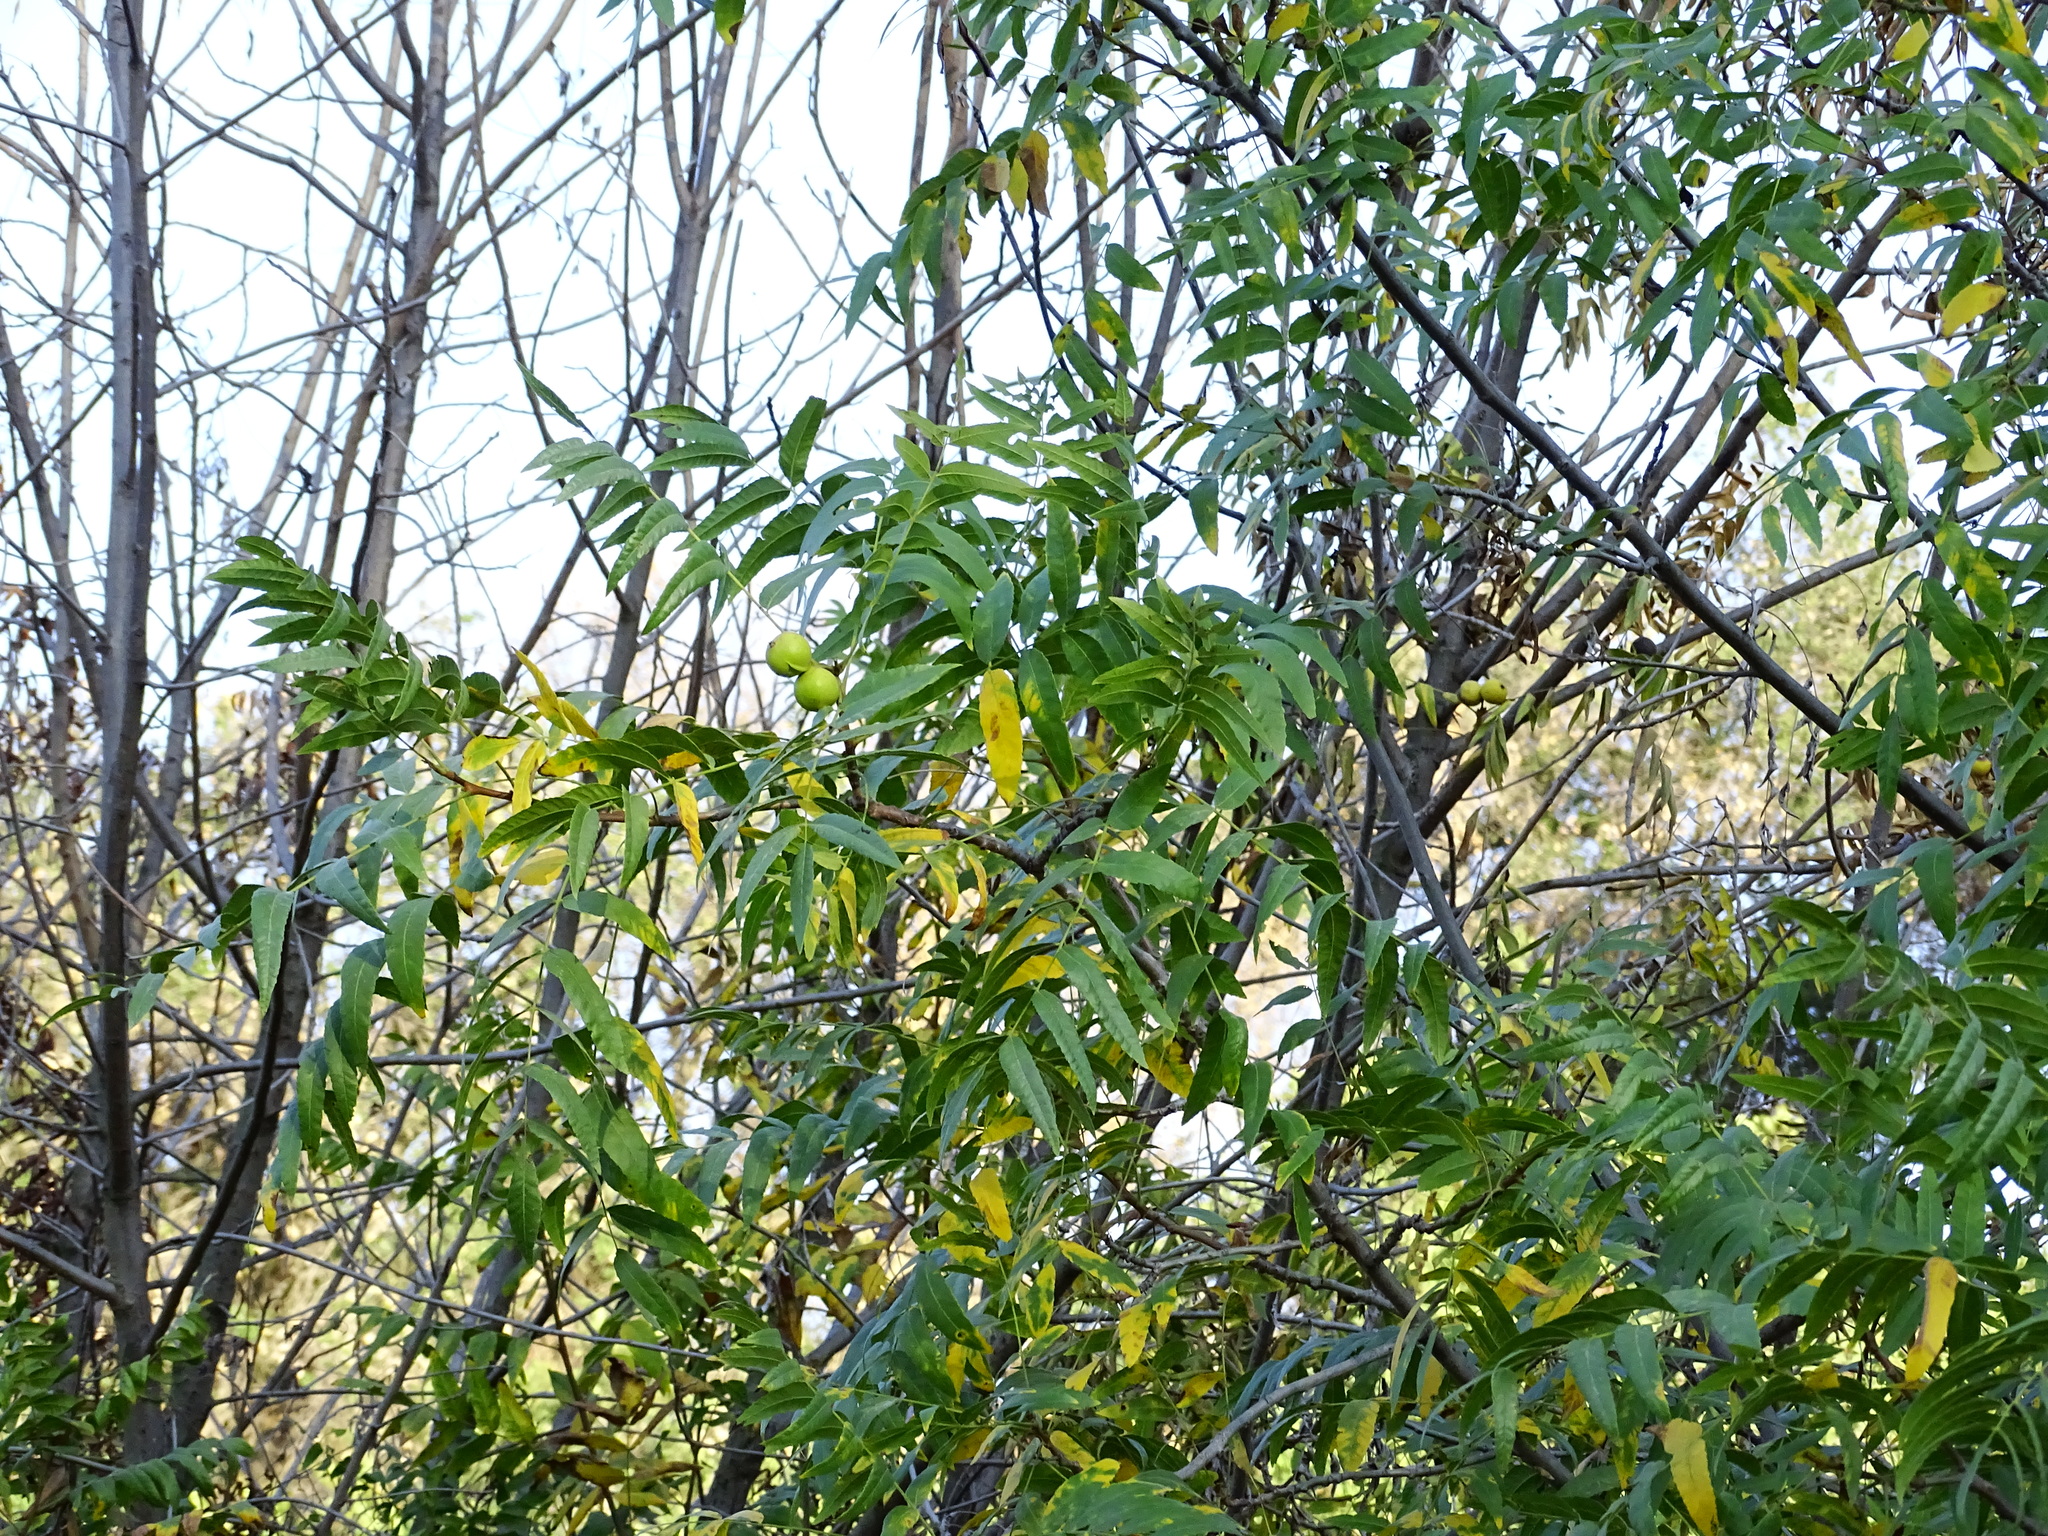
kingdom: Plantae
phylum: Tracheophyta
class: Magnoliopsida
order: Fagales
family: Juglandaceae
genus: Juglans
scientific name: Juglans californica
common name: Southern california black walnut
